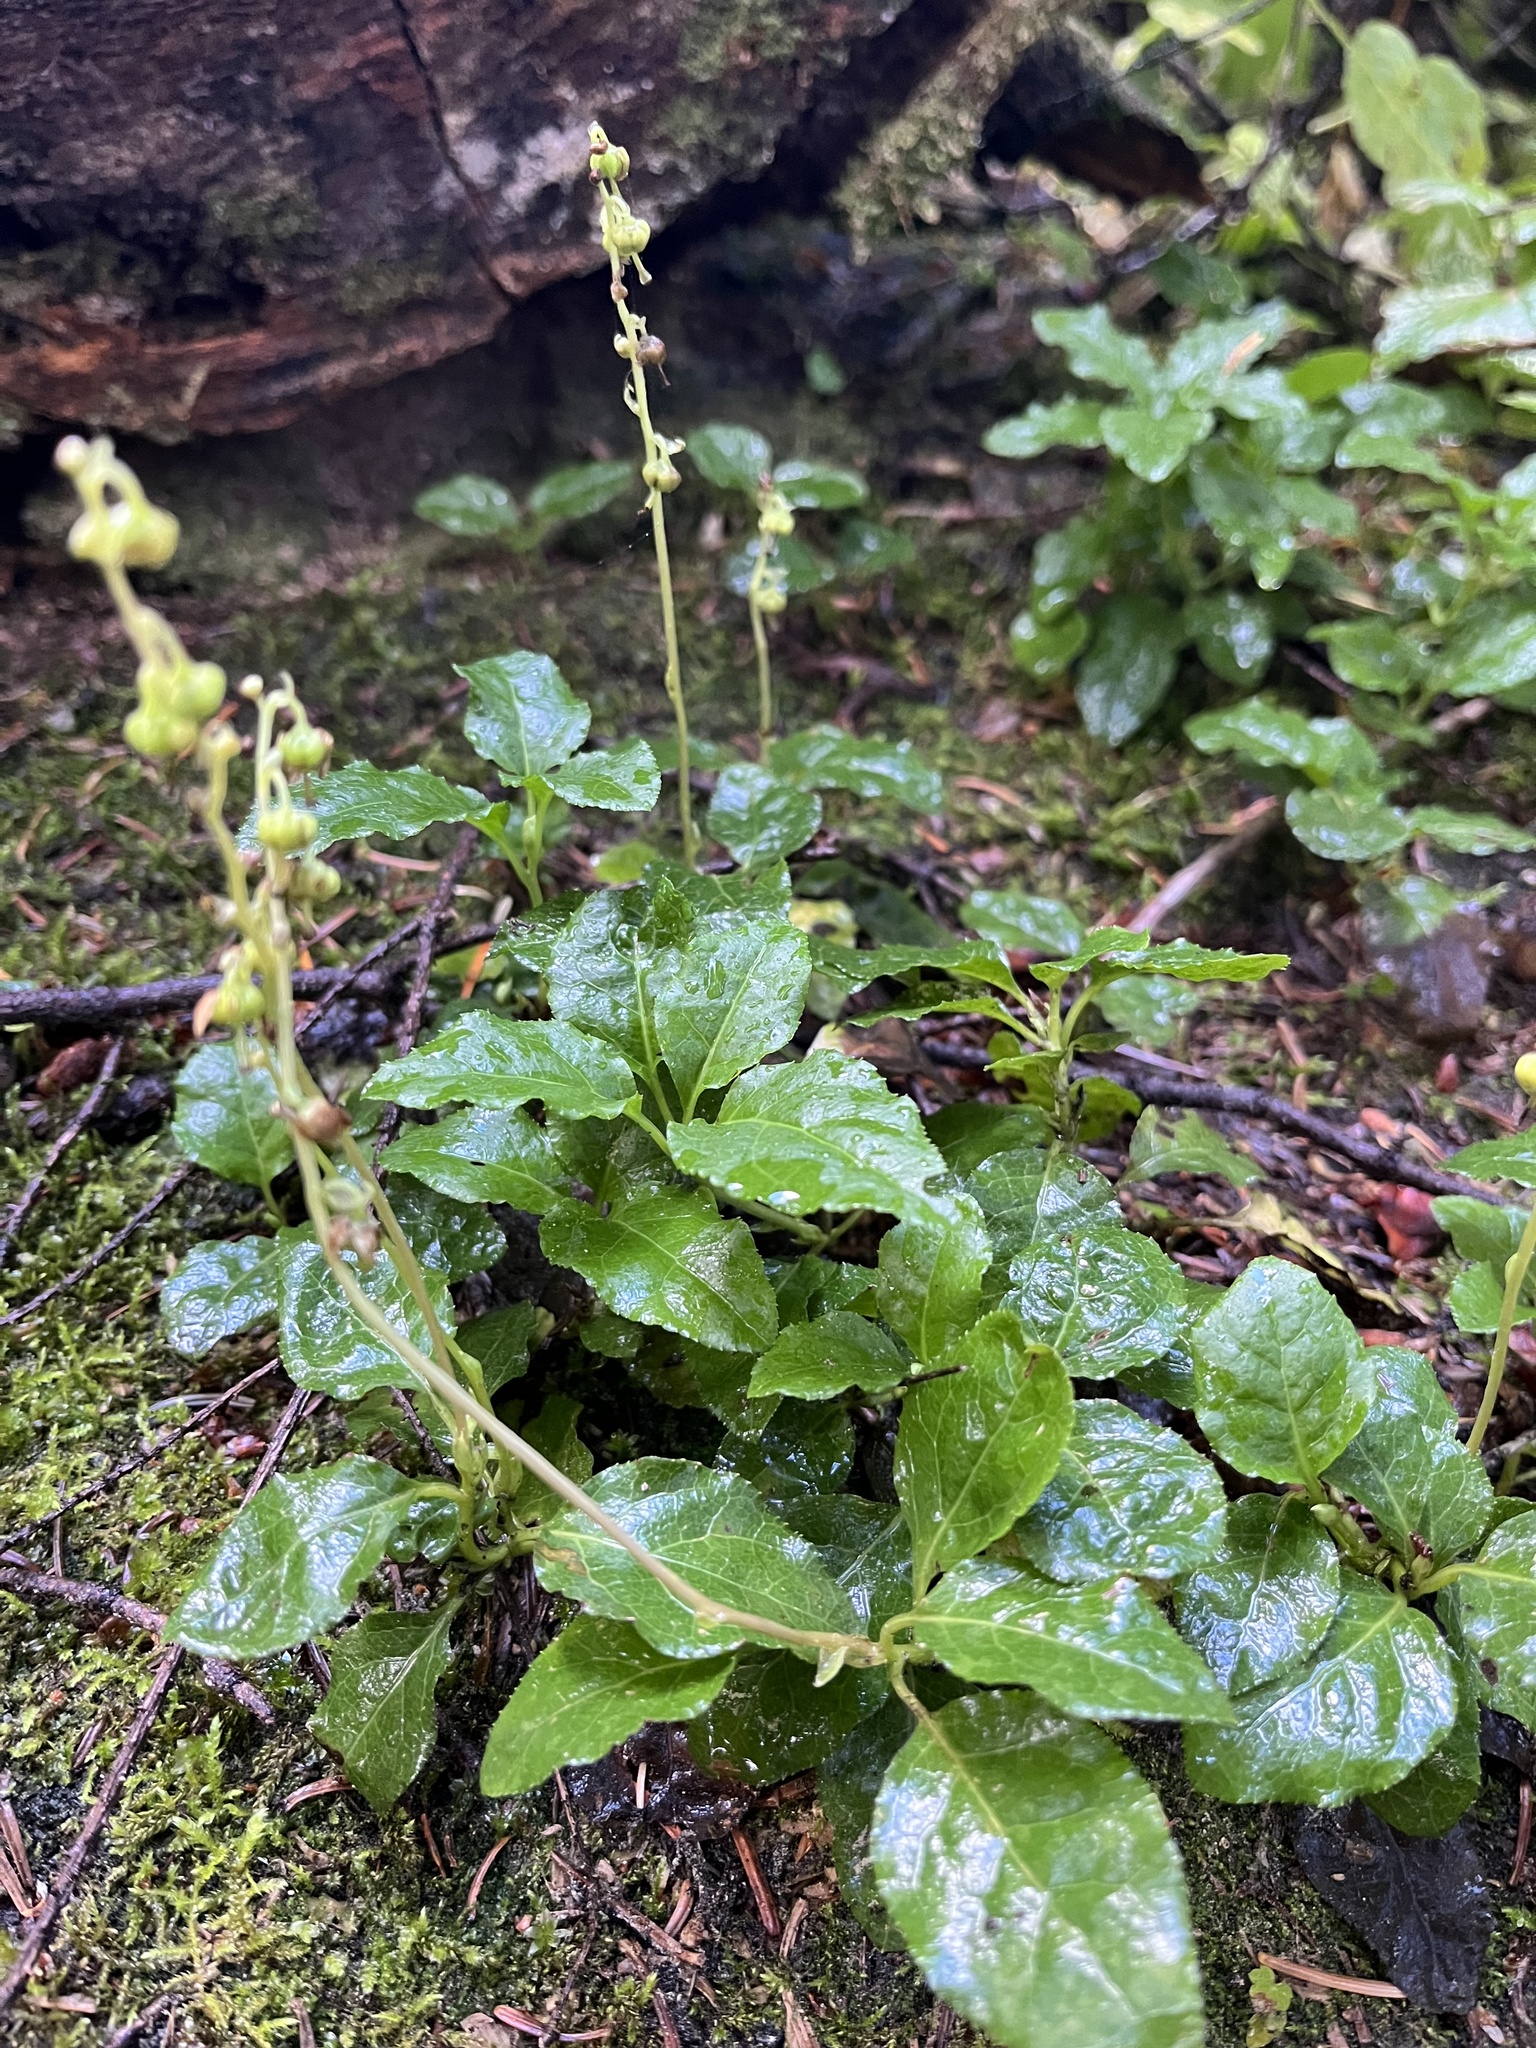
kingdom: Plantae
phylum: Tracheophyta
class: Magnoliopsida
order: Ericales
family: Ericaceae
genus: Orthilia
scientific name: Orthilia secunda
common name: One-sided orthilia
